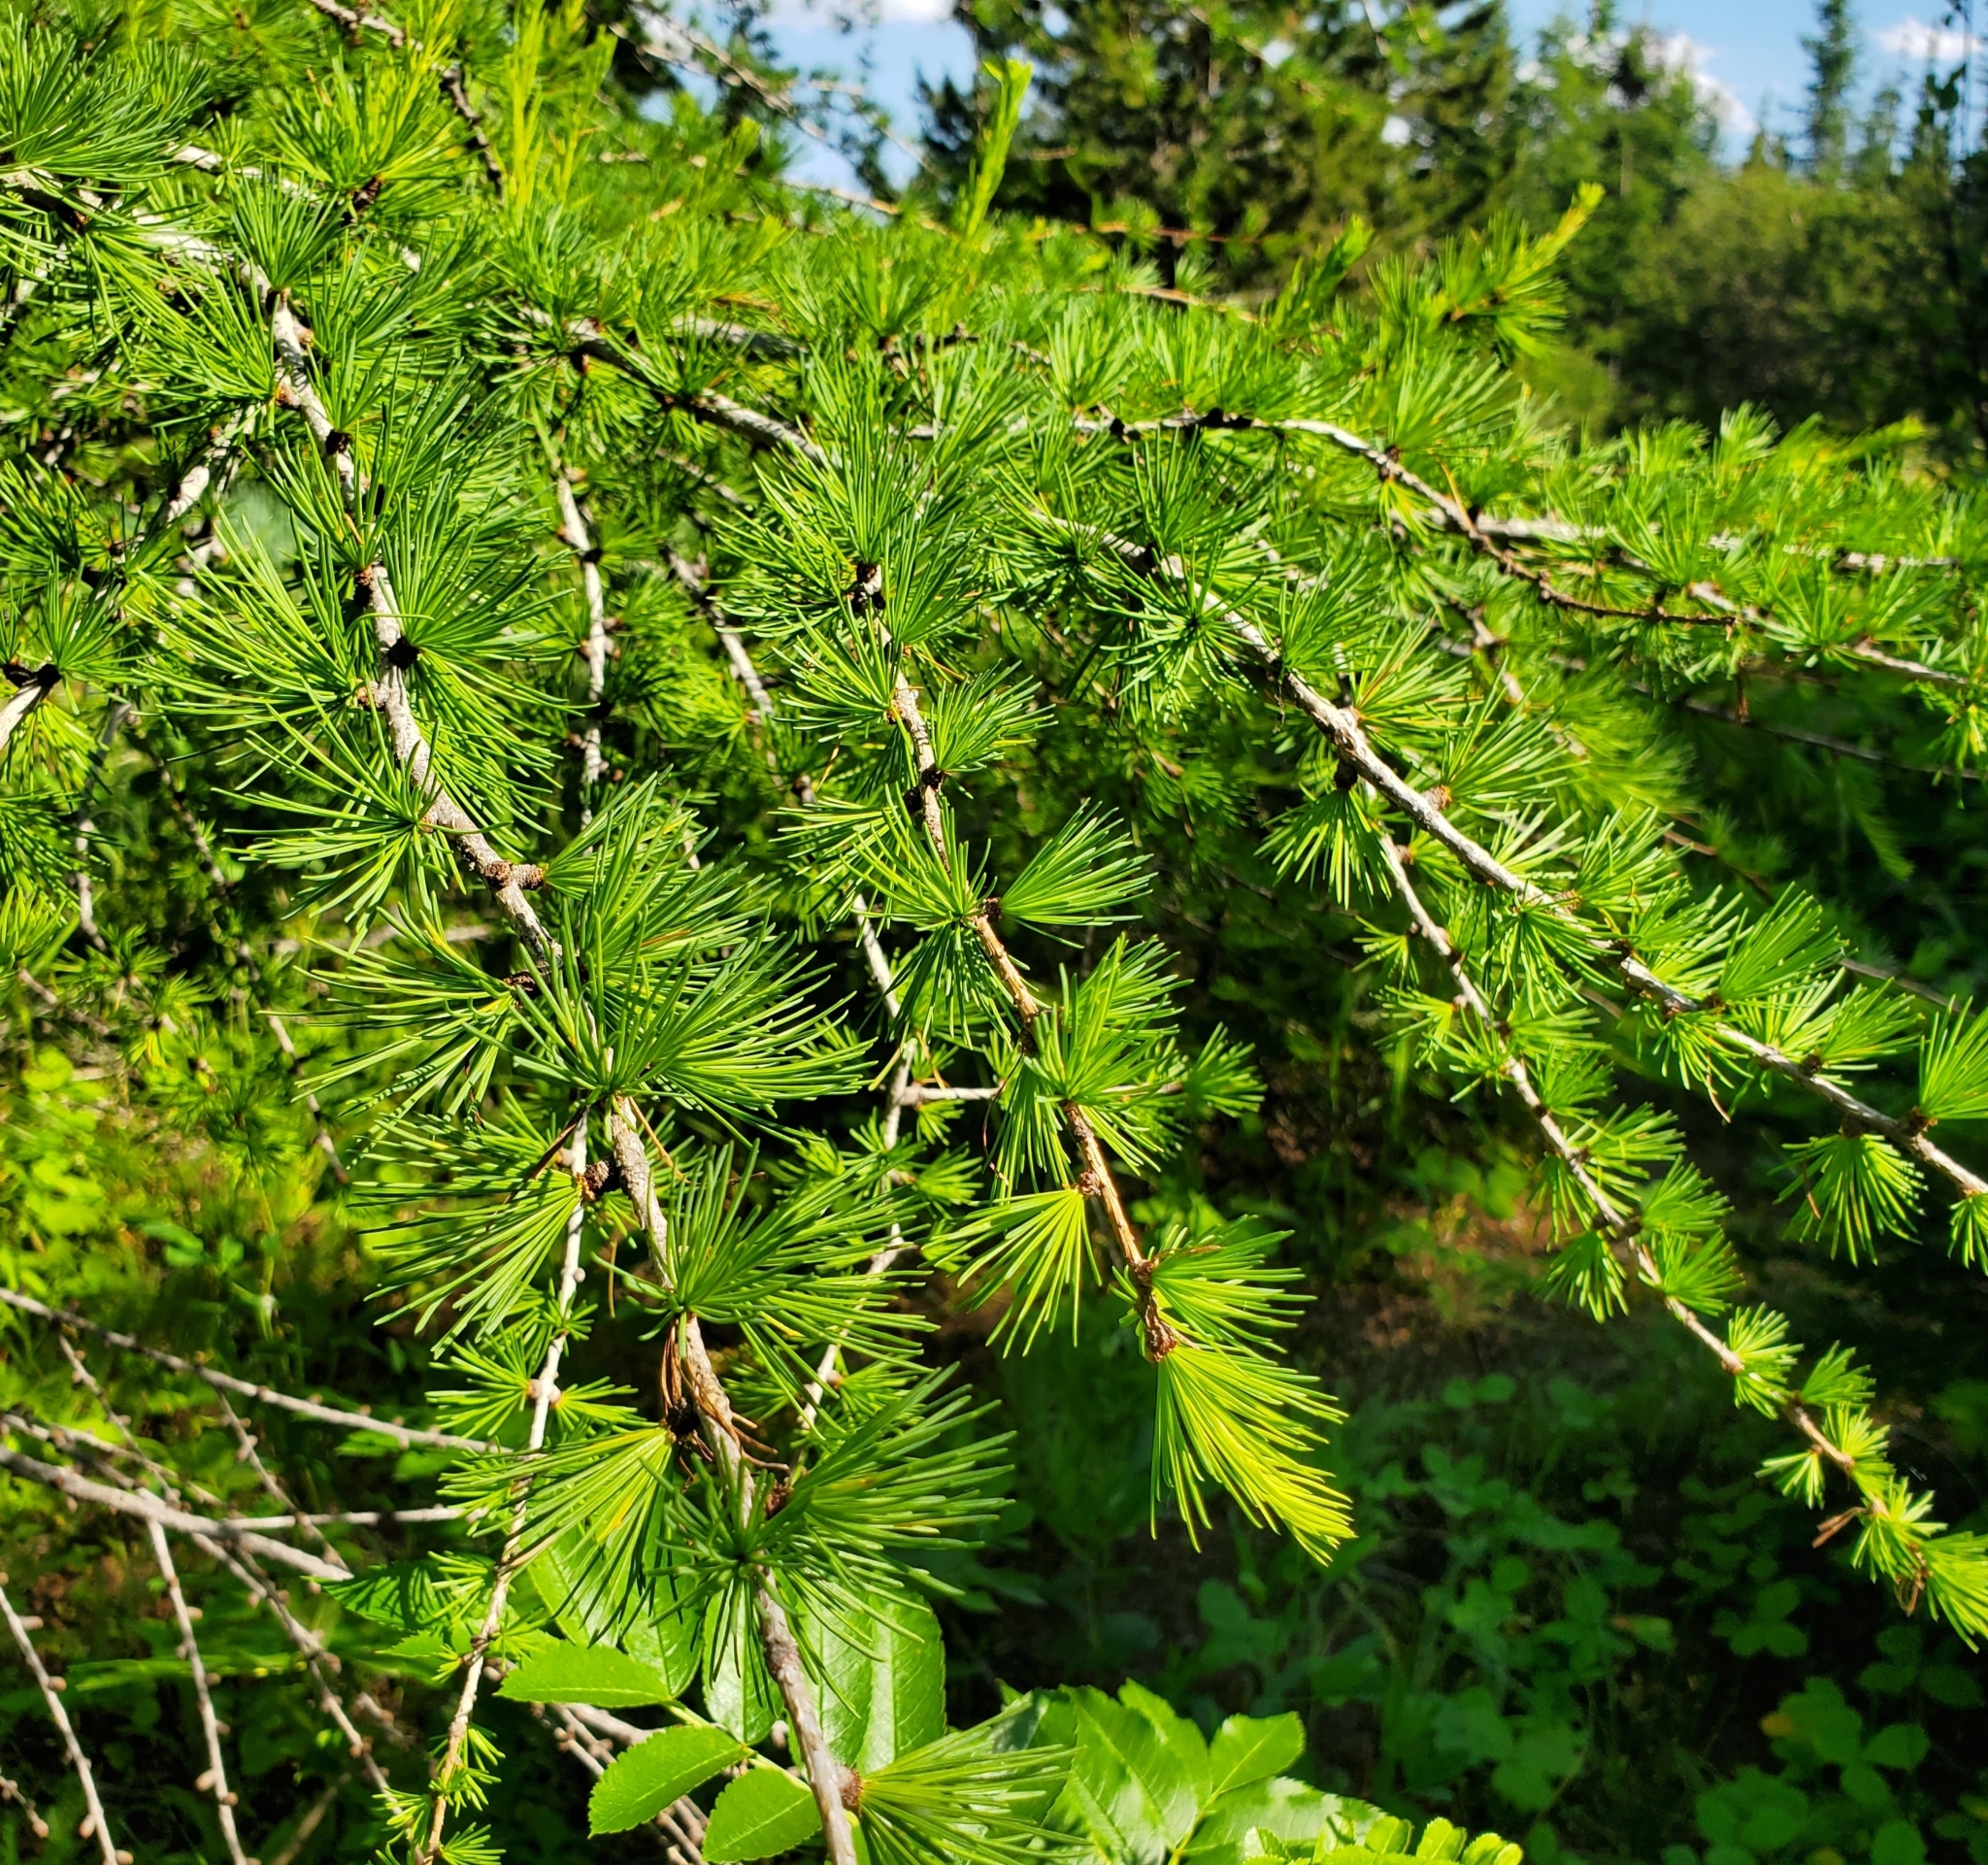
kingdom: Plantae
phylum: Tracheophyta
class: Pinopsida
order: Pinales
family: Pinaceae
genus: Larix
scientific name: Larix occidentalis
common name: Western larch
